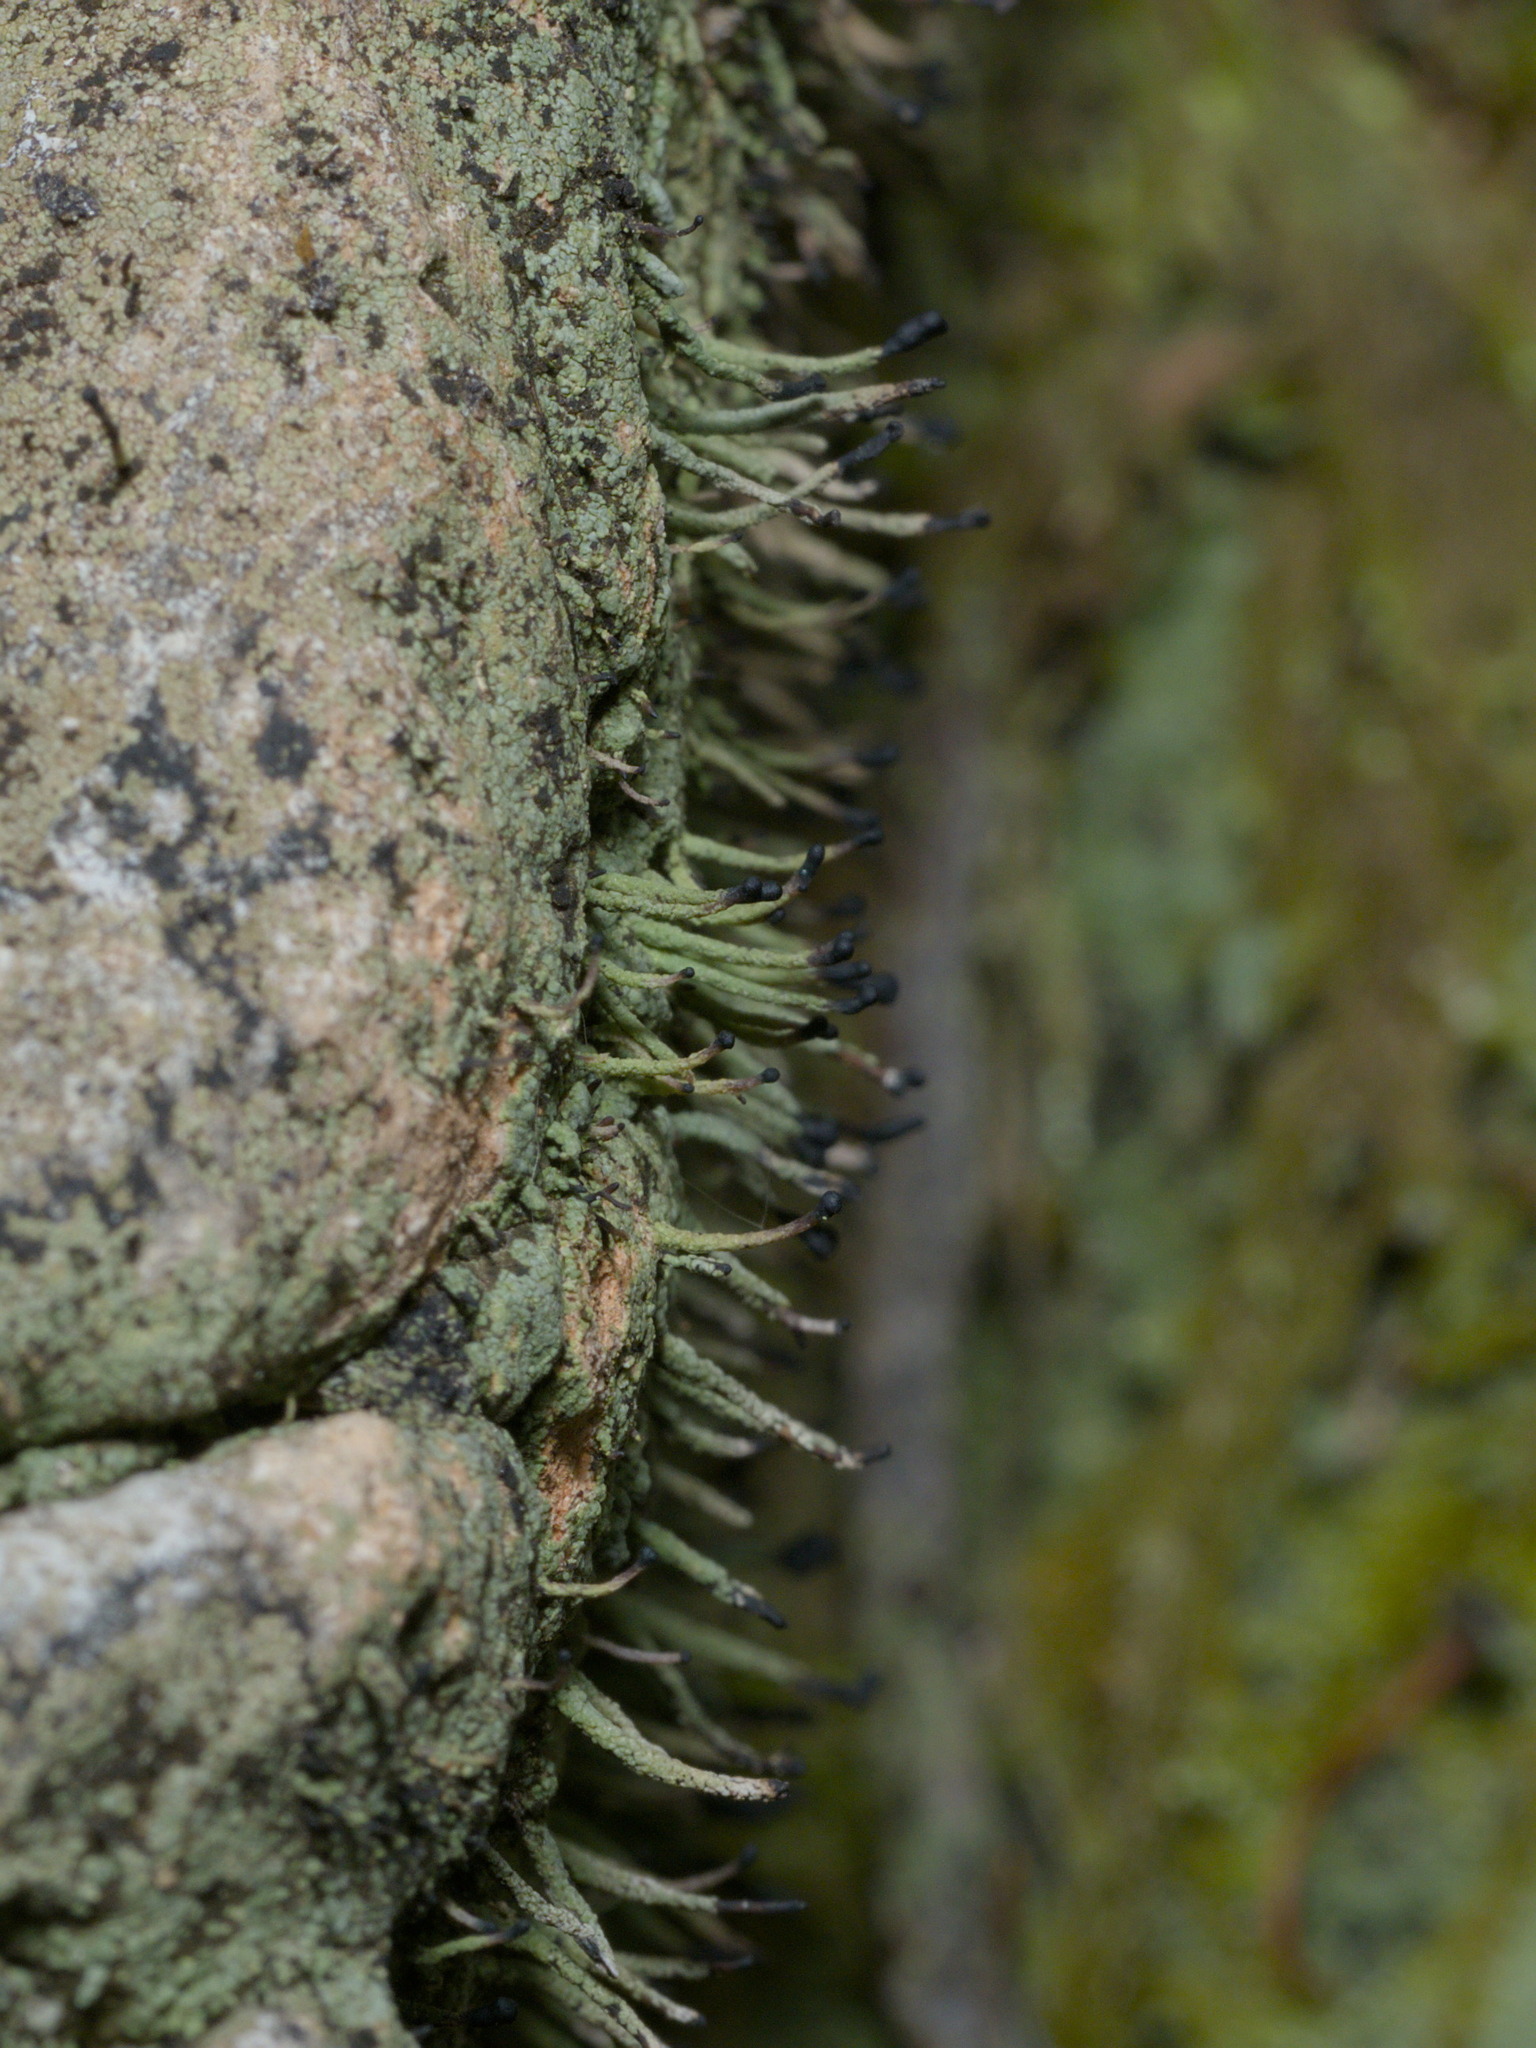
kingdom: Fungi
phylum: Ascomycota
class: Lecanoromycetes
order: Lecanorales
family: Cladoniaceae
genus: Pilophorus
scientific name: Pilophorus clavatus
